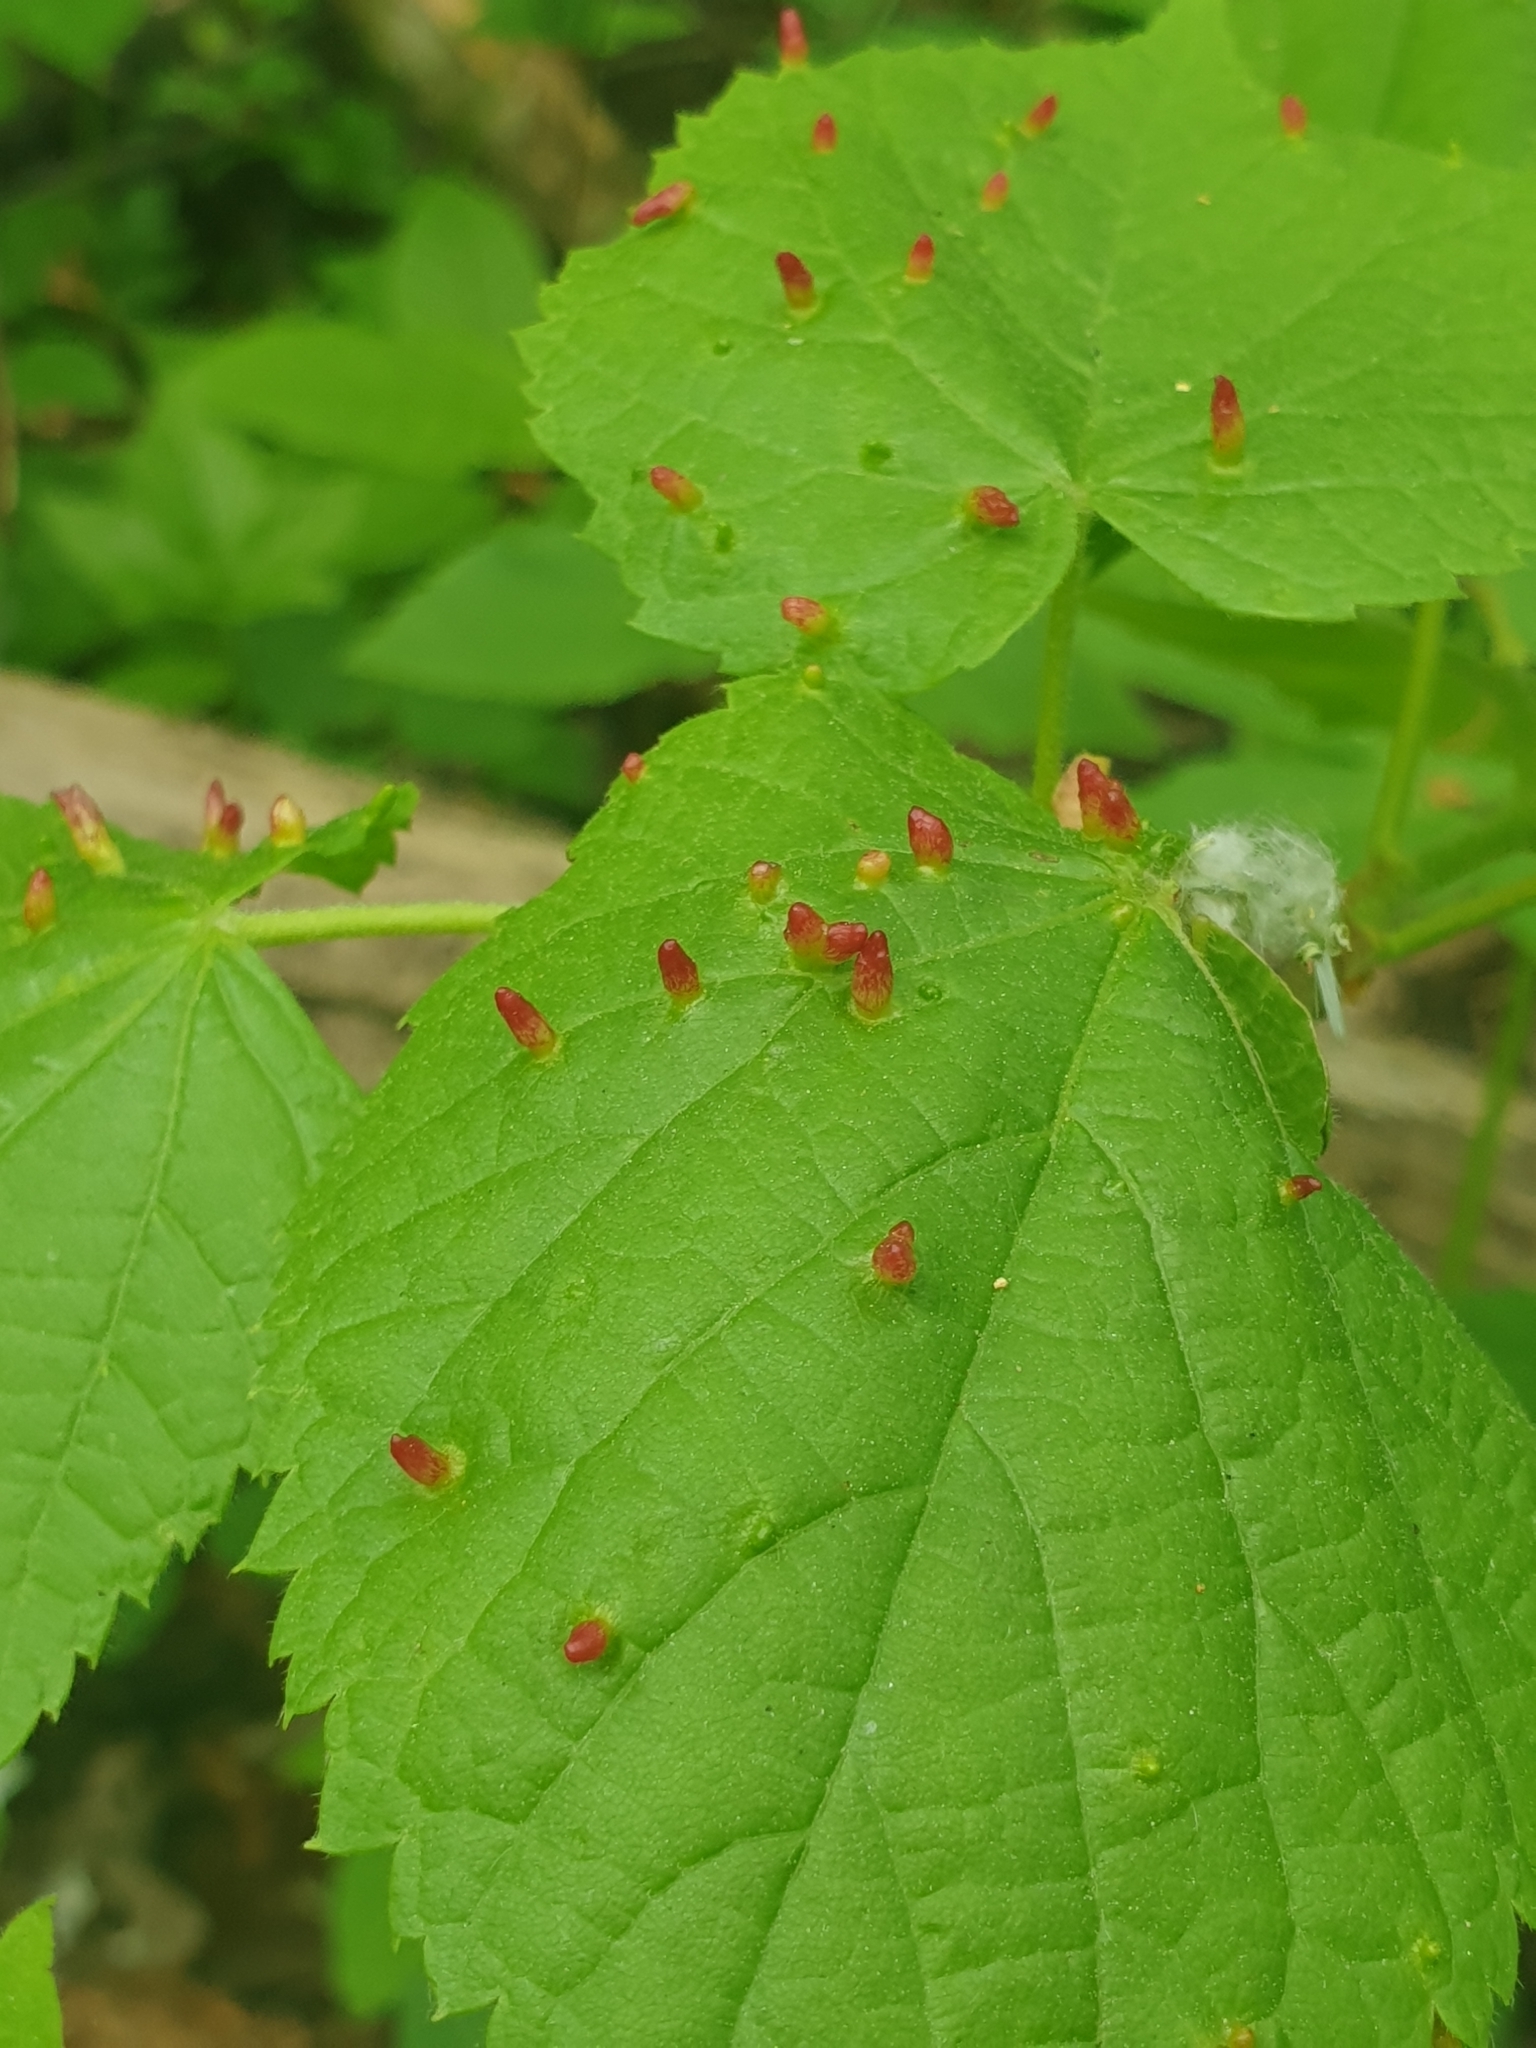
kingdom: Animalia
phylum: Arthropoda
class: Arachnida
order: Trombidiformes
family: Eriophyidae
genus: Eriophyes
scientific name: Eriophyes tiliae
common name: Red nail gall mite
